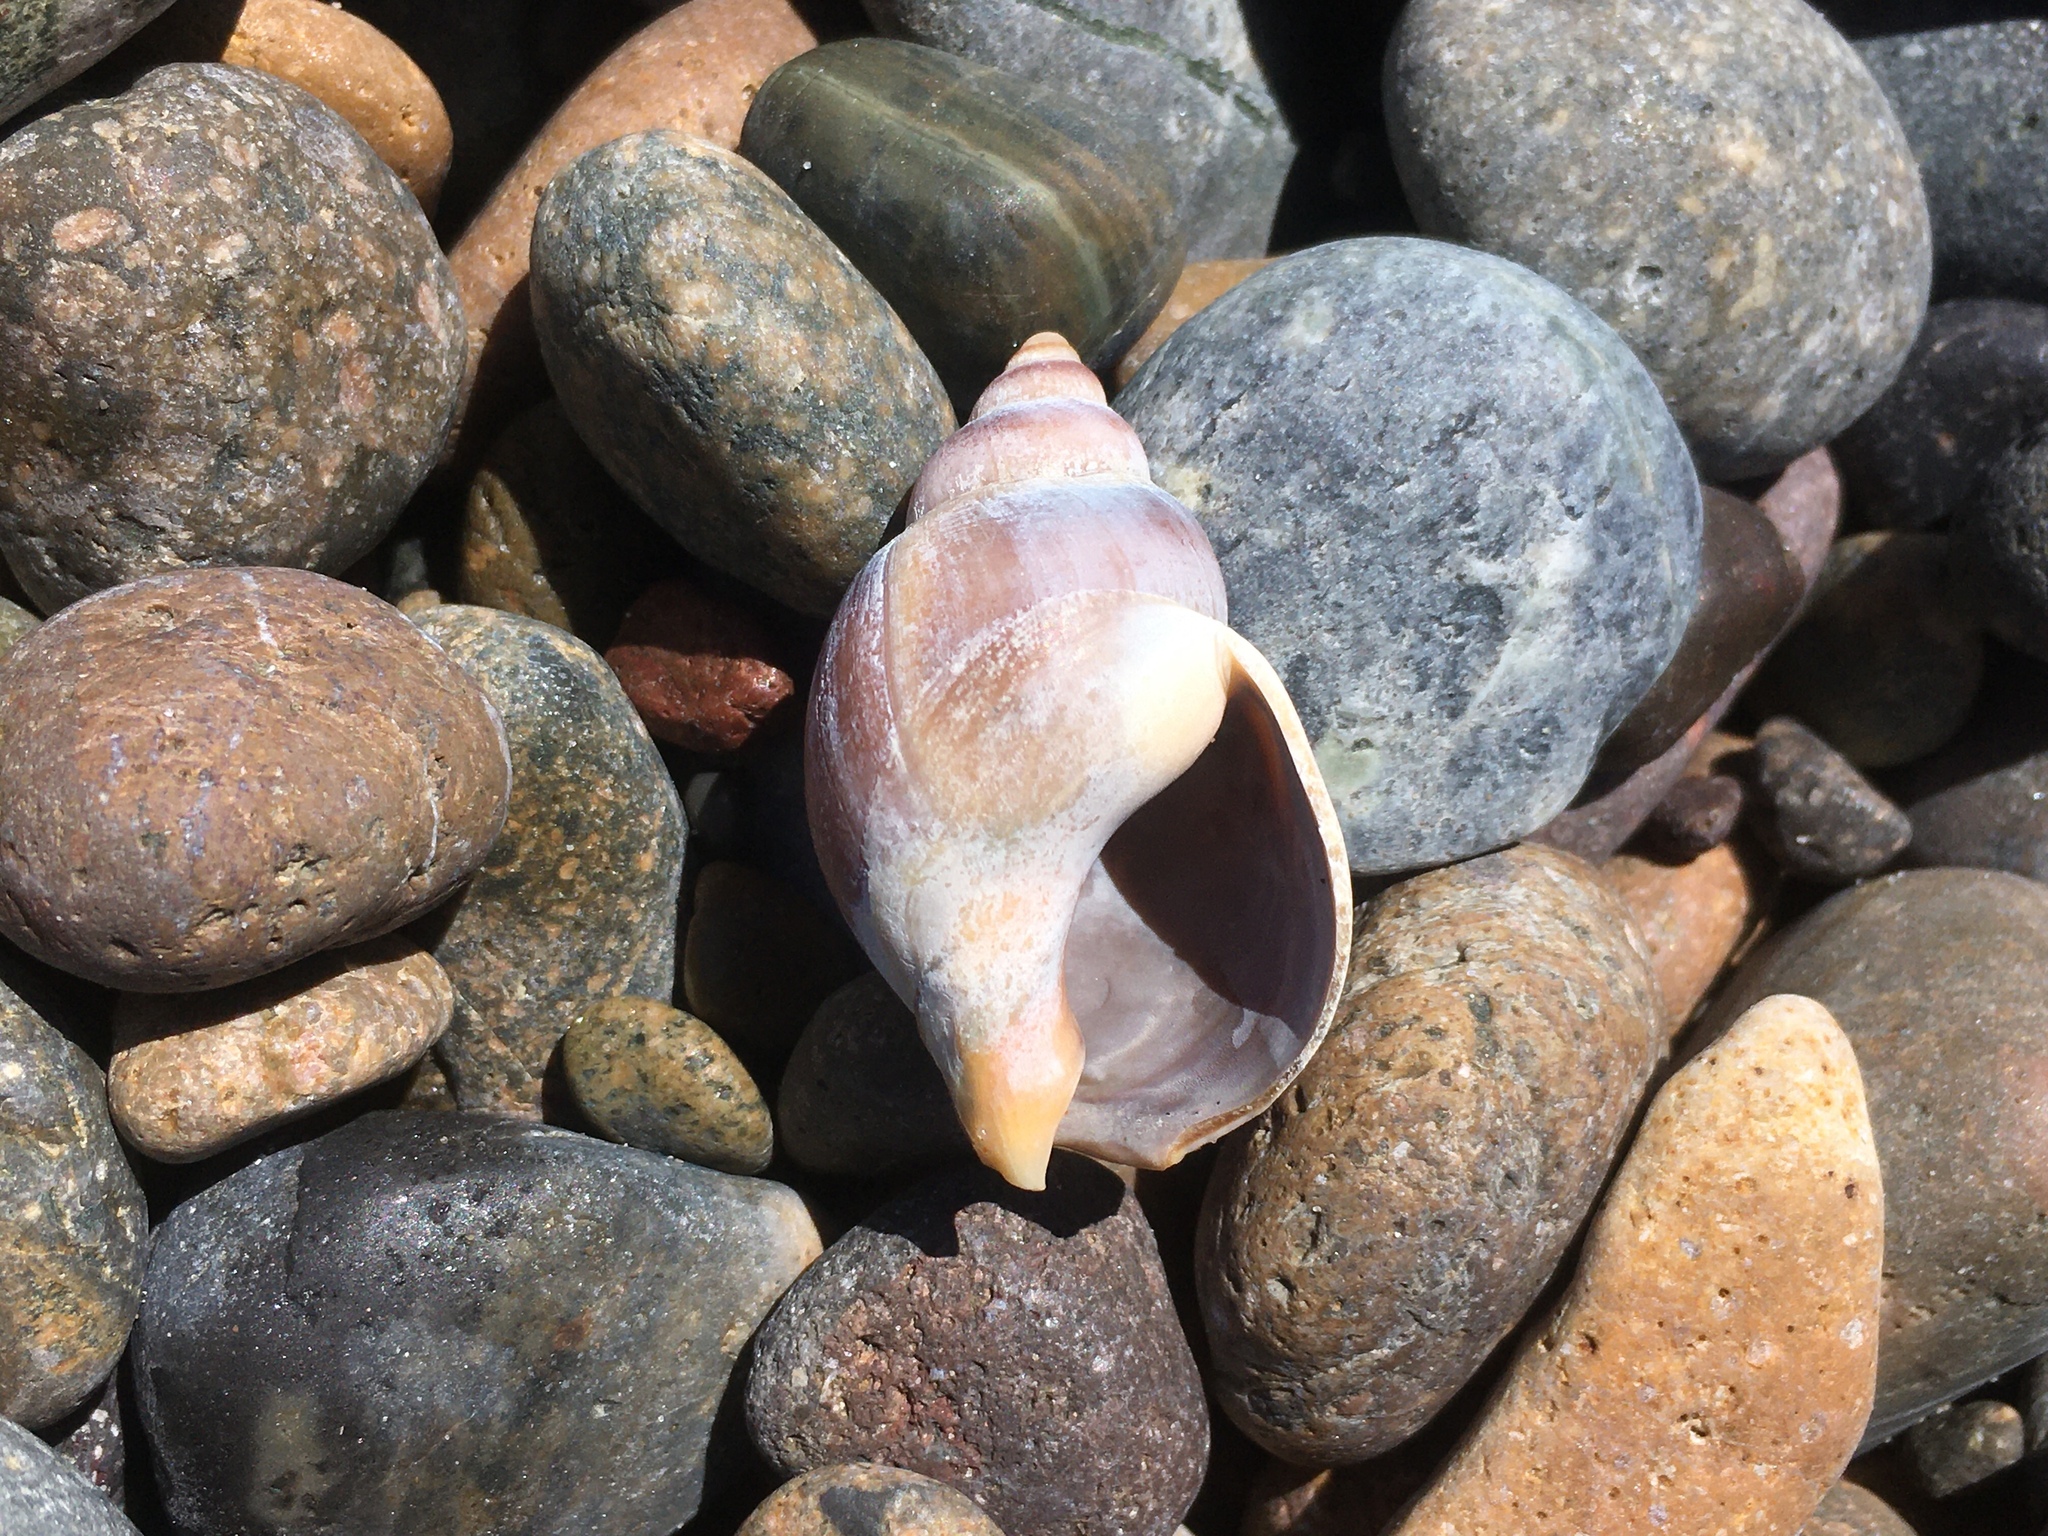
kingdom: Animalia
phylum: Mollusca
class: Gastropoda
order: Neogastropoda
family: Buccinanopsidae
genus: Buccinastrum
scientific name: Buccinastrum deforme
